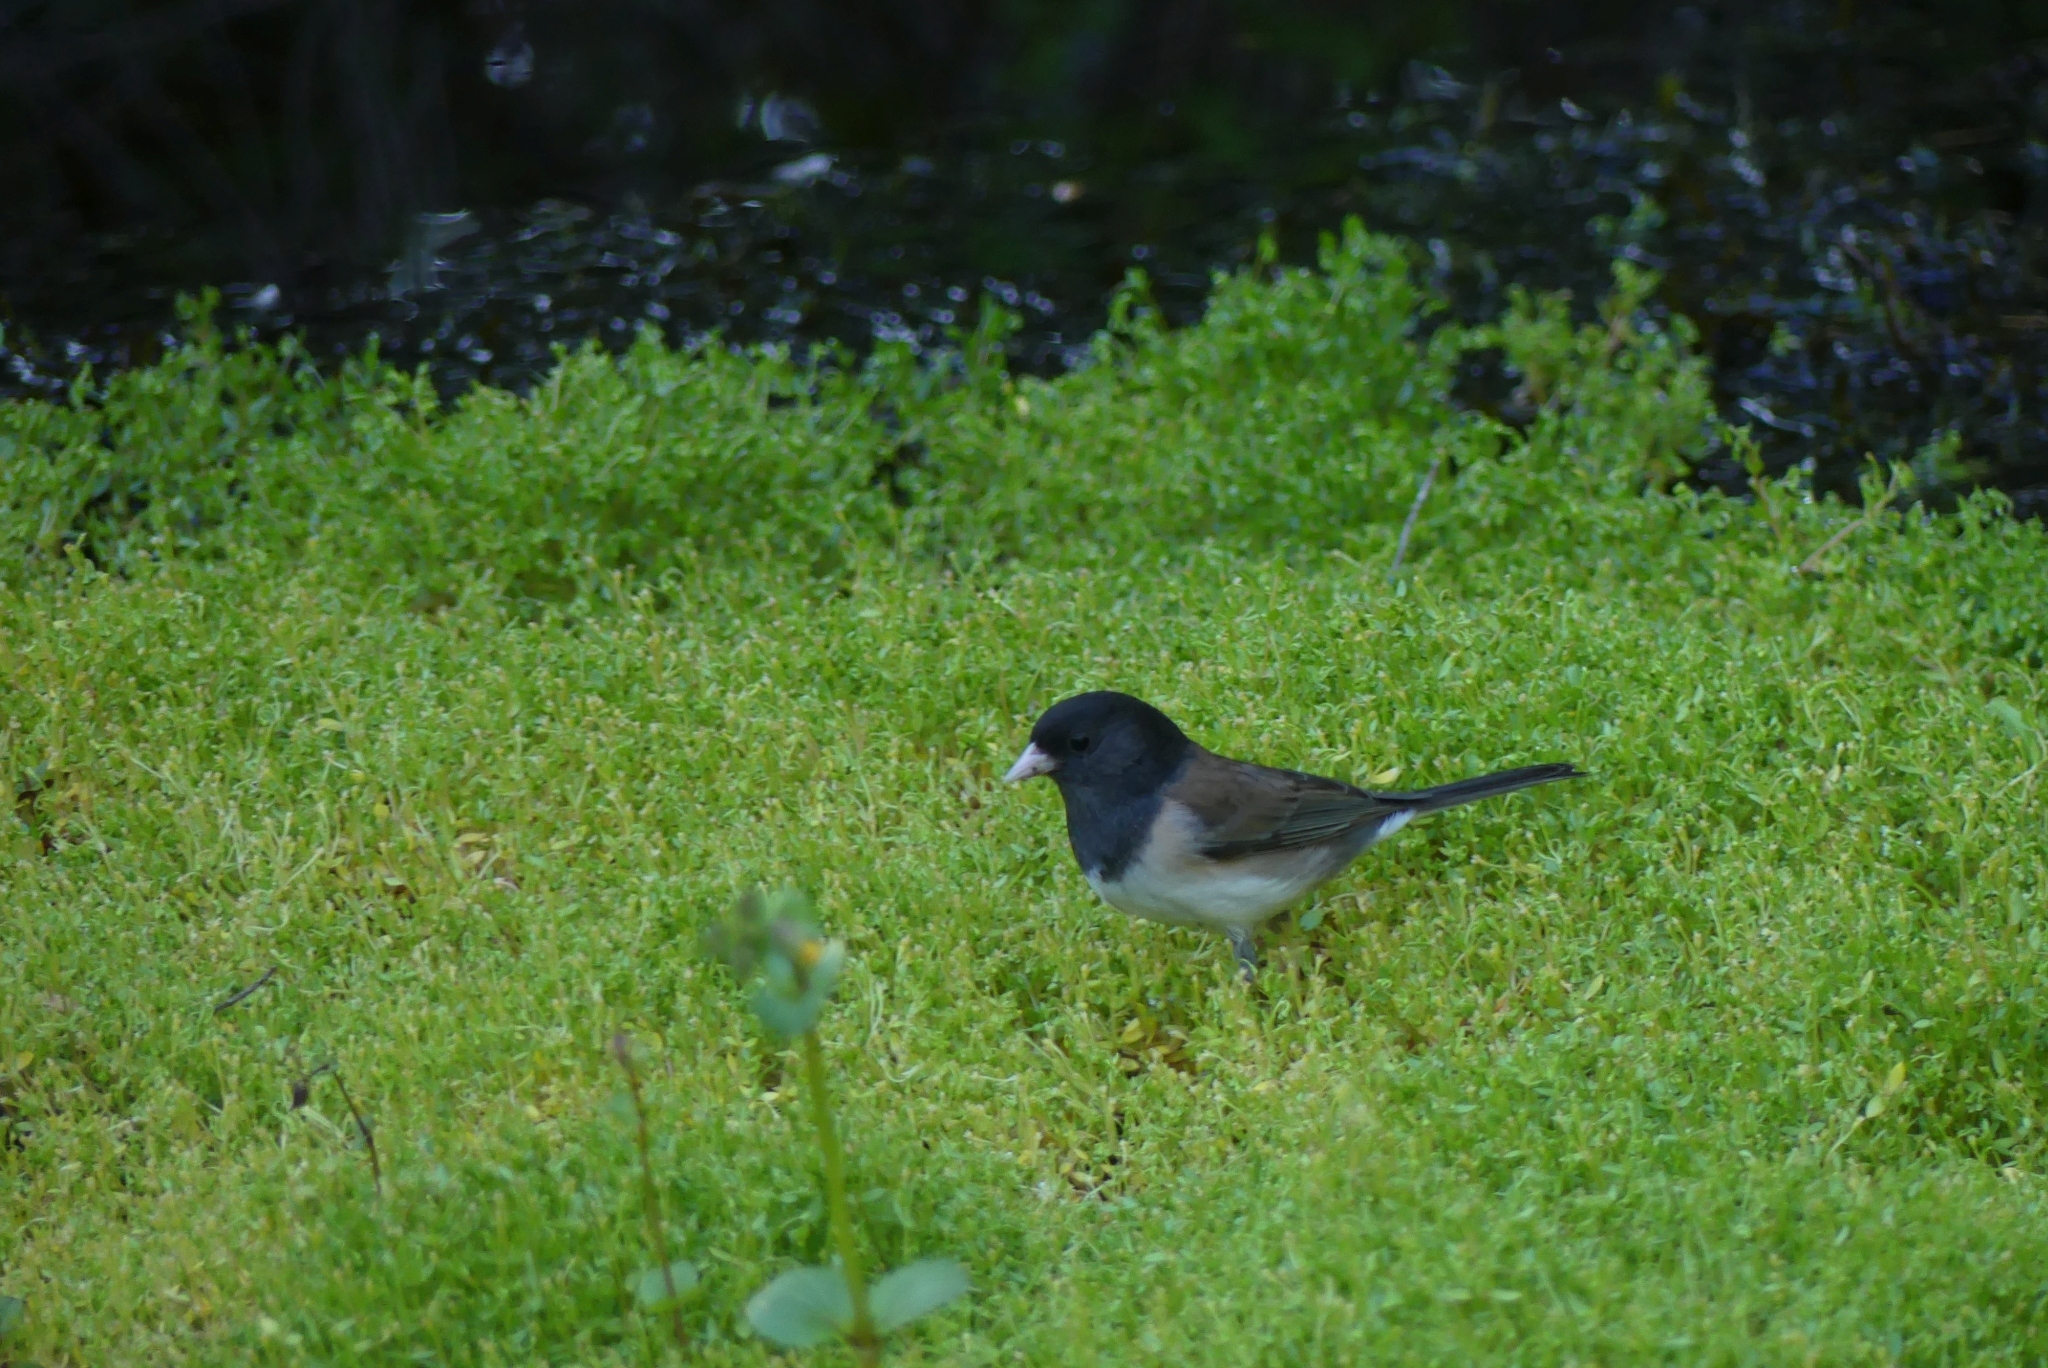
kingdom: Animalia
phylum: Chordata
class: Aves
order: Passeriformes
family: Passerellidae
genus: Junco
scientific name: Junco hyemalis
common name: Dark-eyed junco
